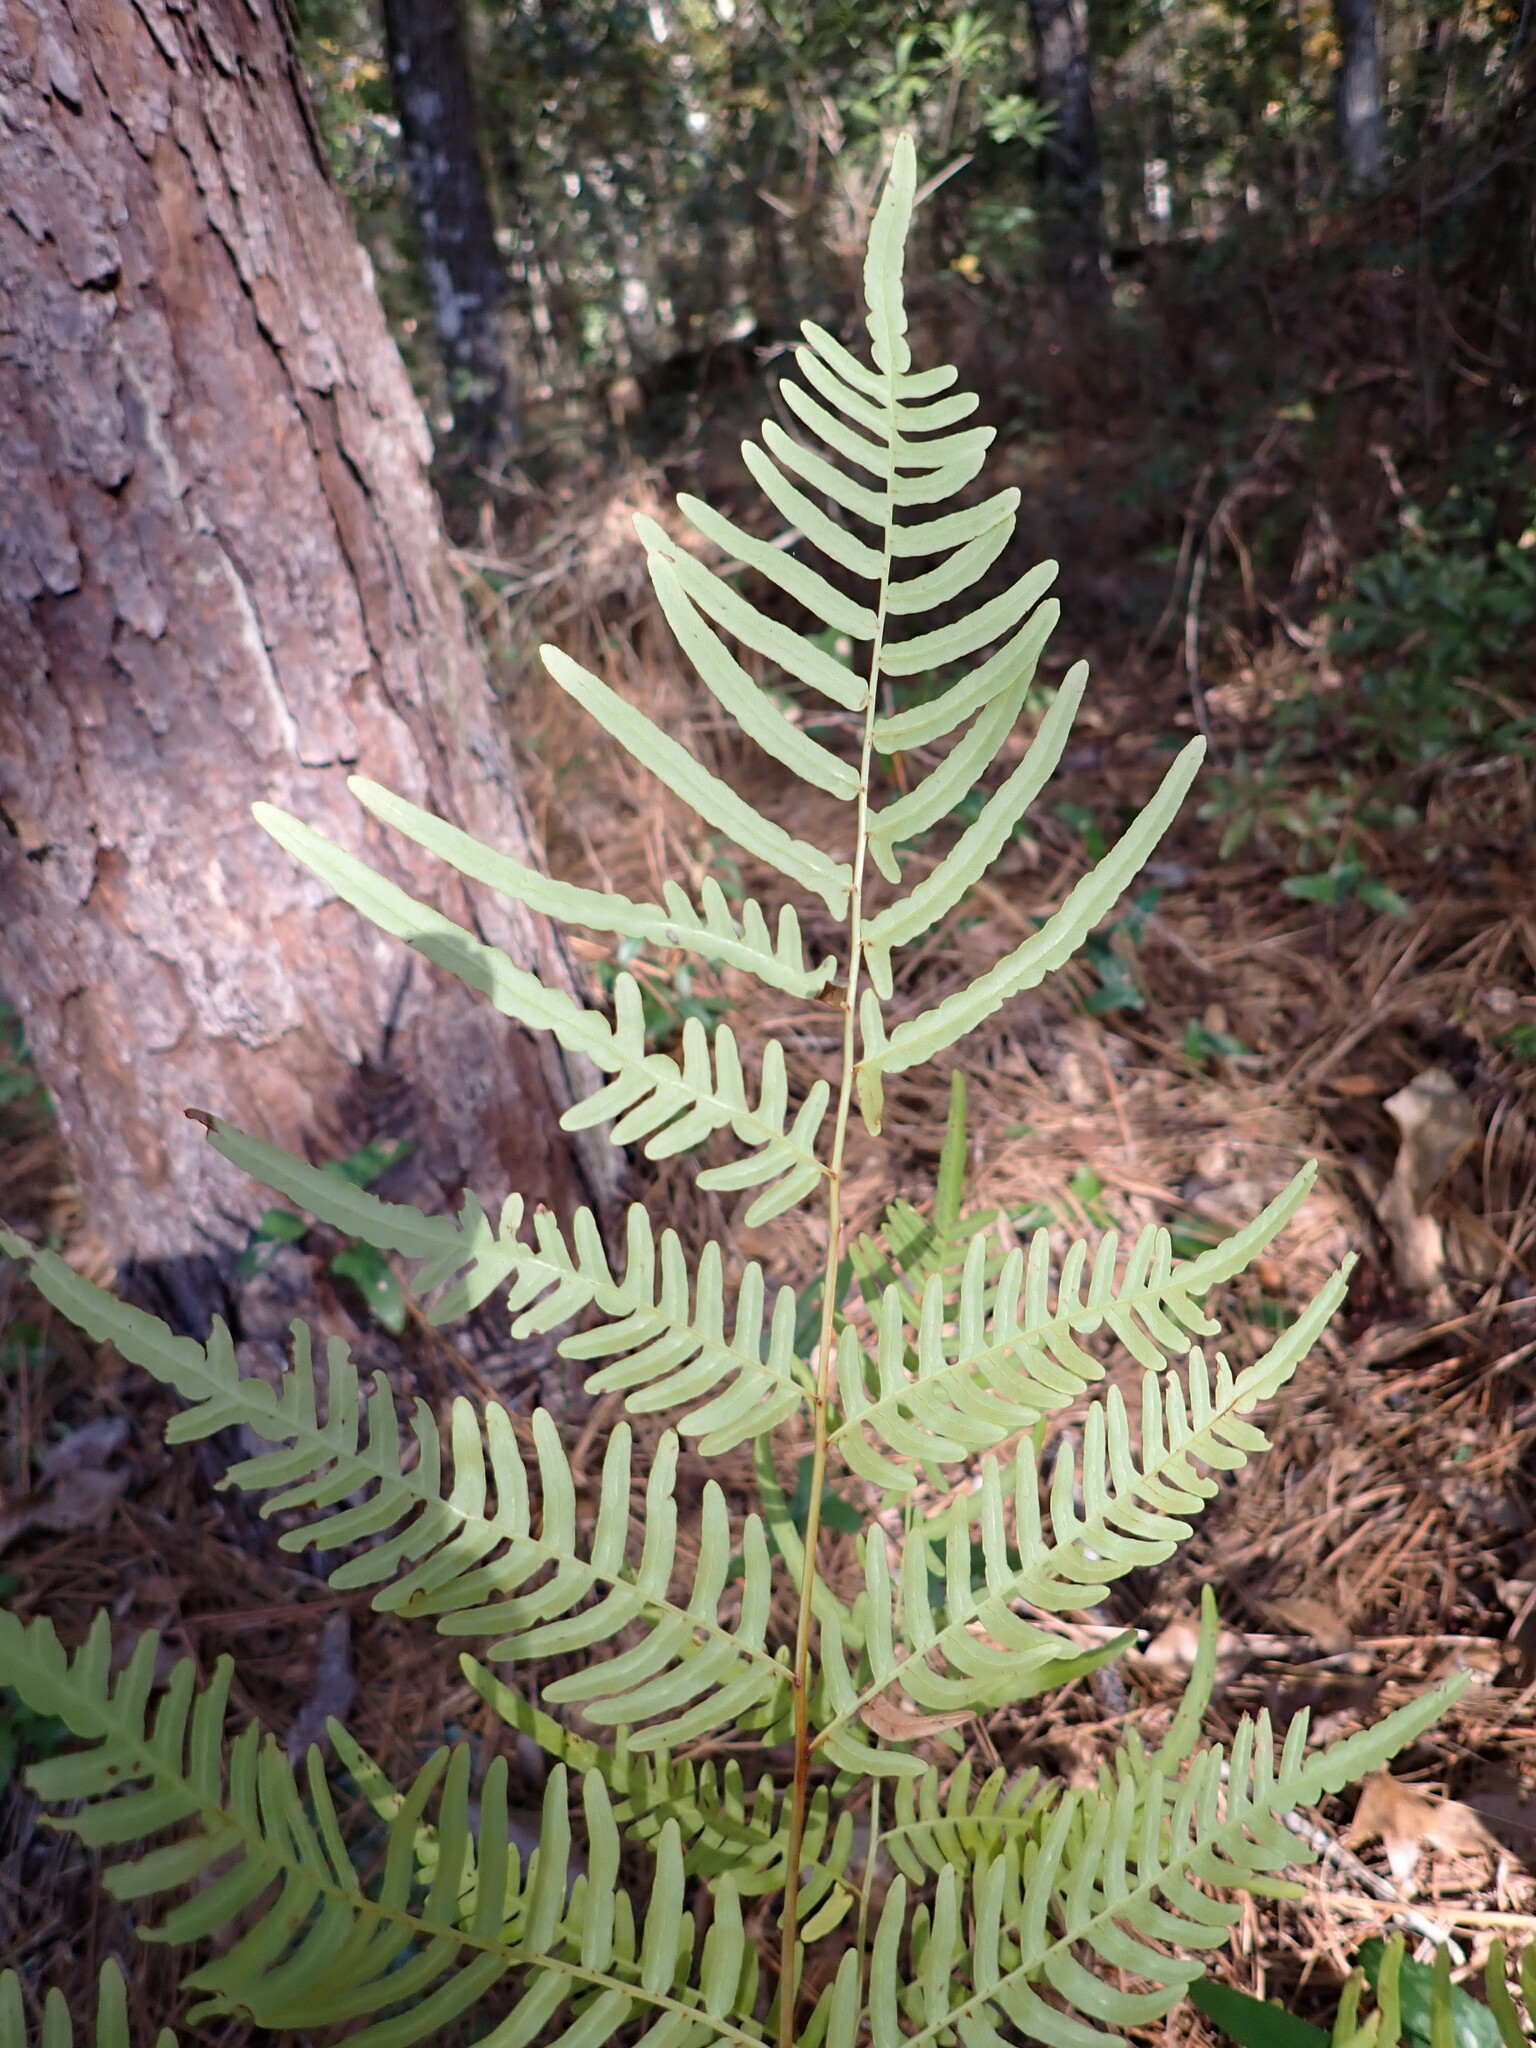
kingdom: Plantae
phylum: Tracheophyta
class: Polypodiopsida
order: Polypodiales
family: Dennstaedtiaceae
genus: Pteridium
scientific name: Pteridium
